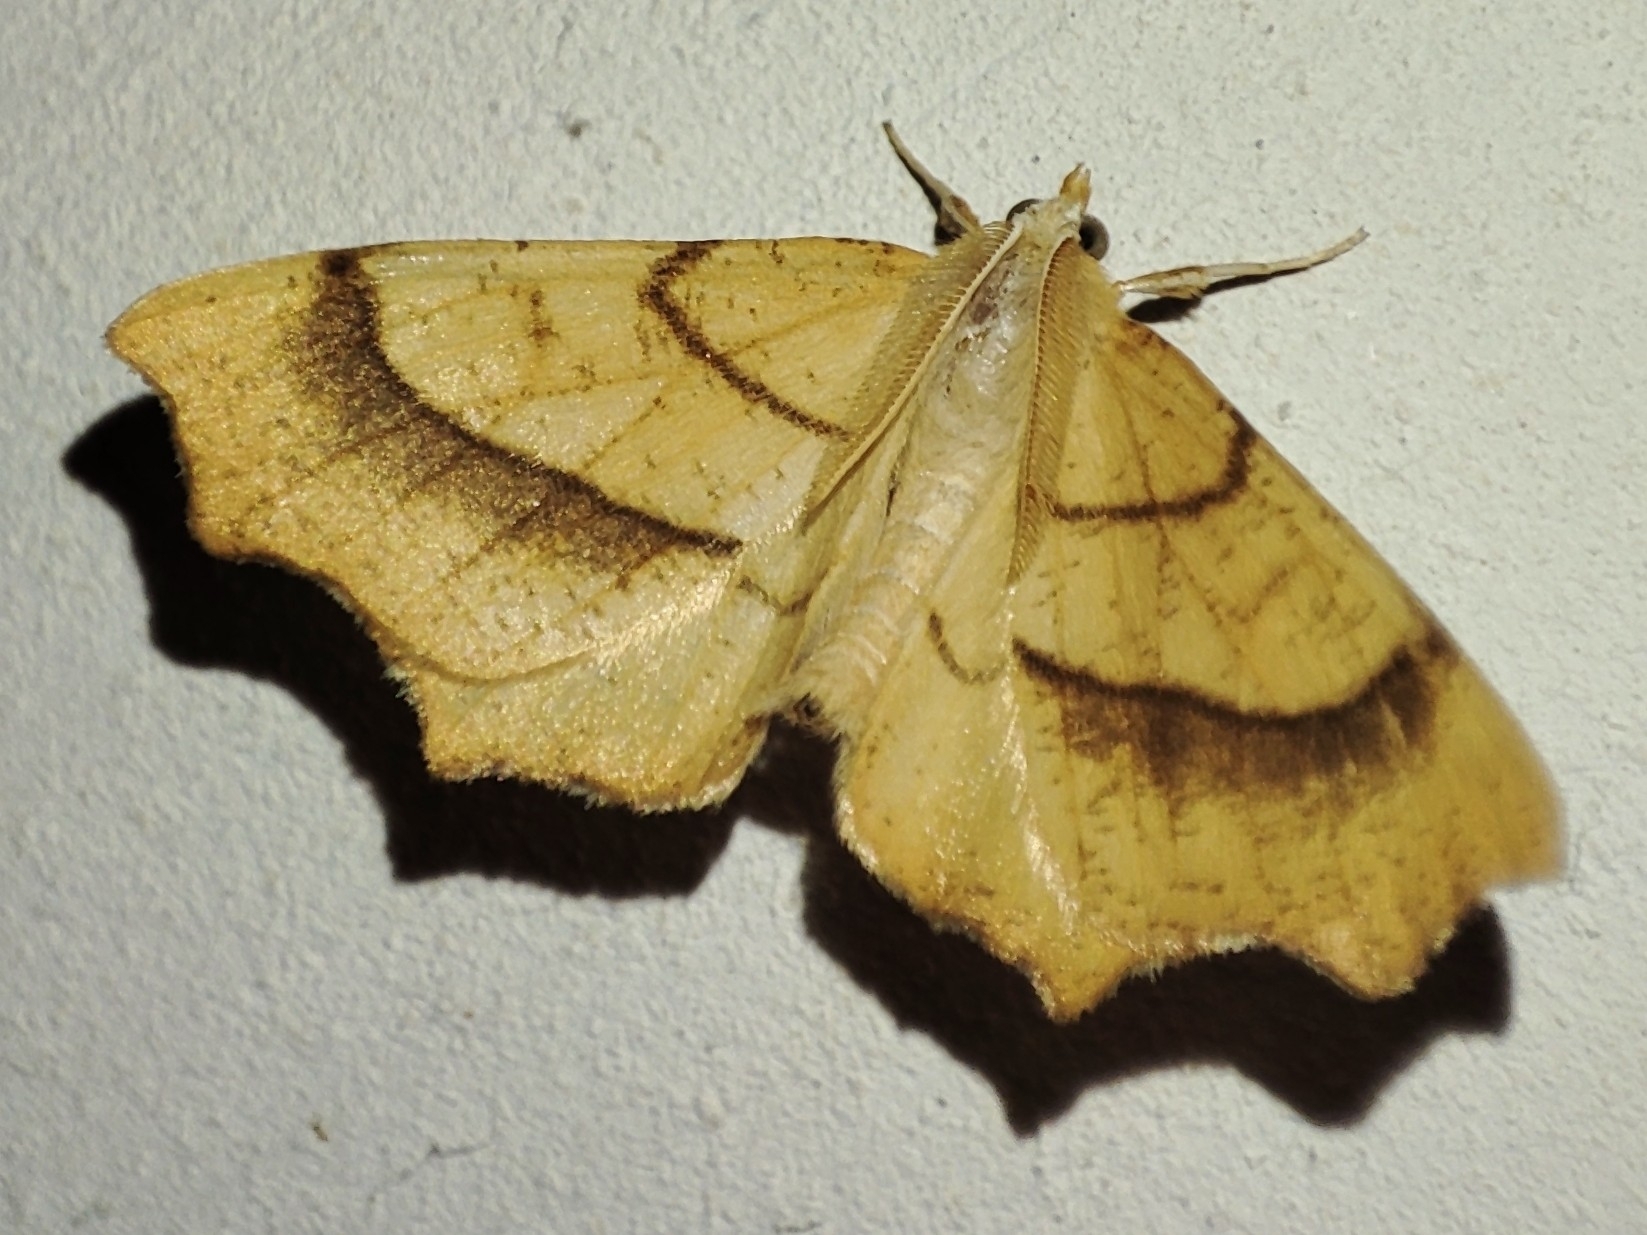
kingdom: Animalia
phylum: Arthropoda
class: Insecta
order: Lepidoptera
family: Geometridae
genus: Ennomos
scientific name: Ennomos quercinaria
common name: August thorn
